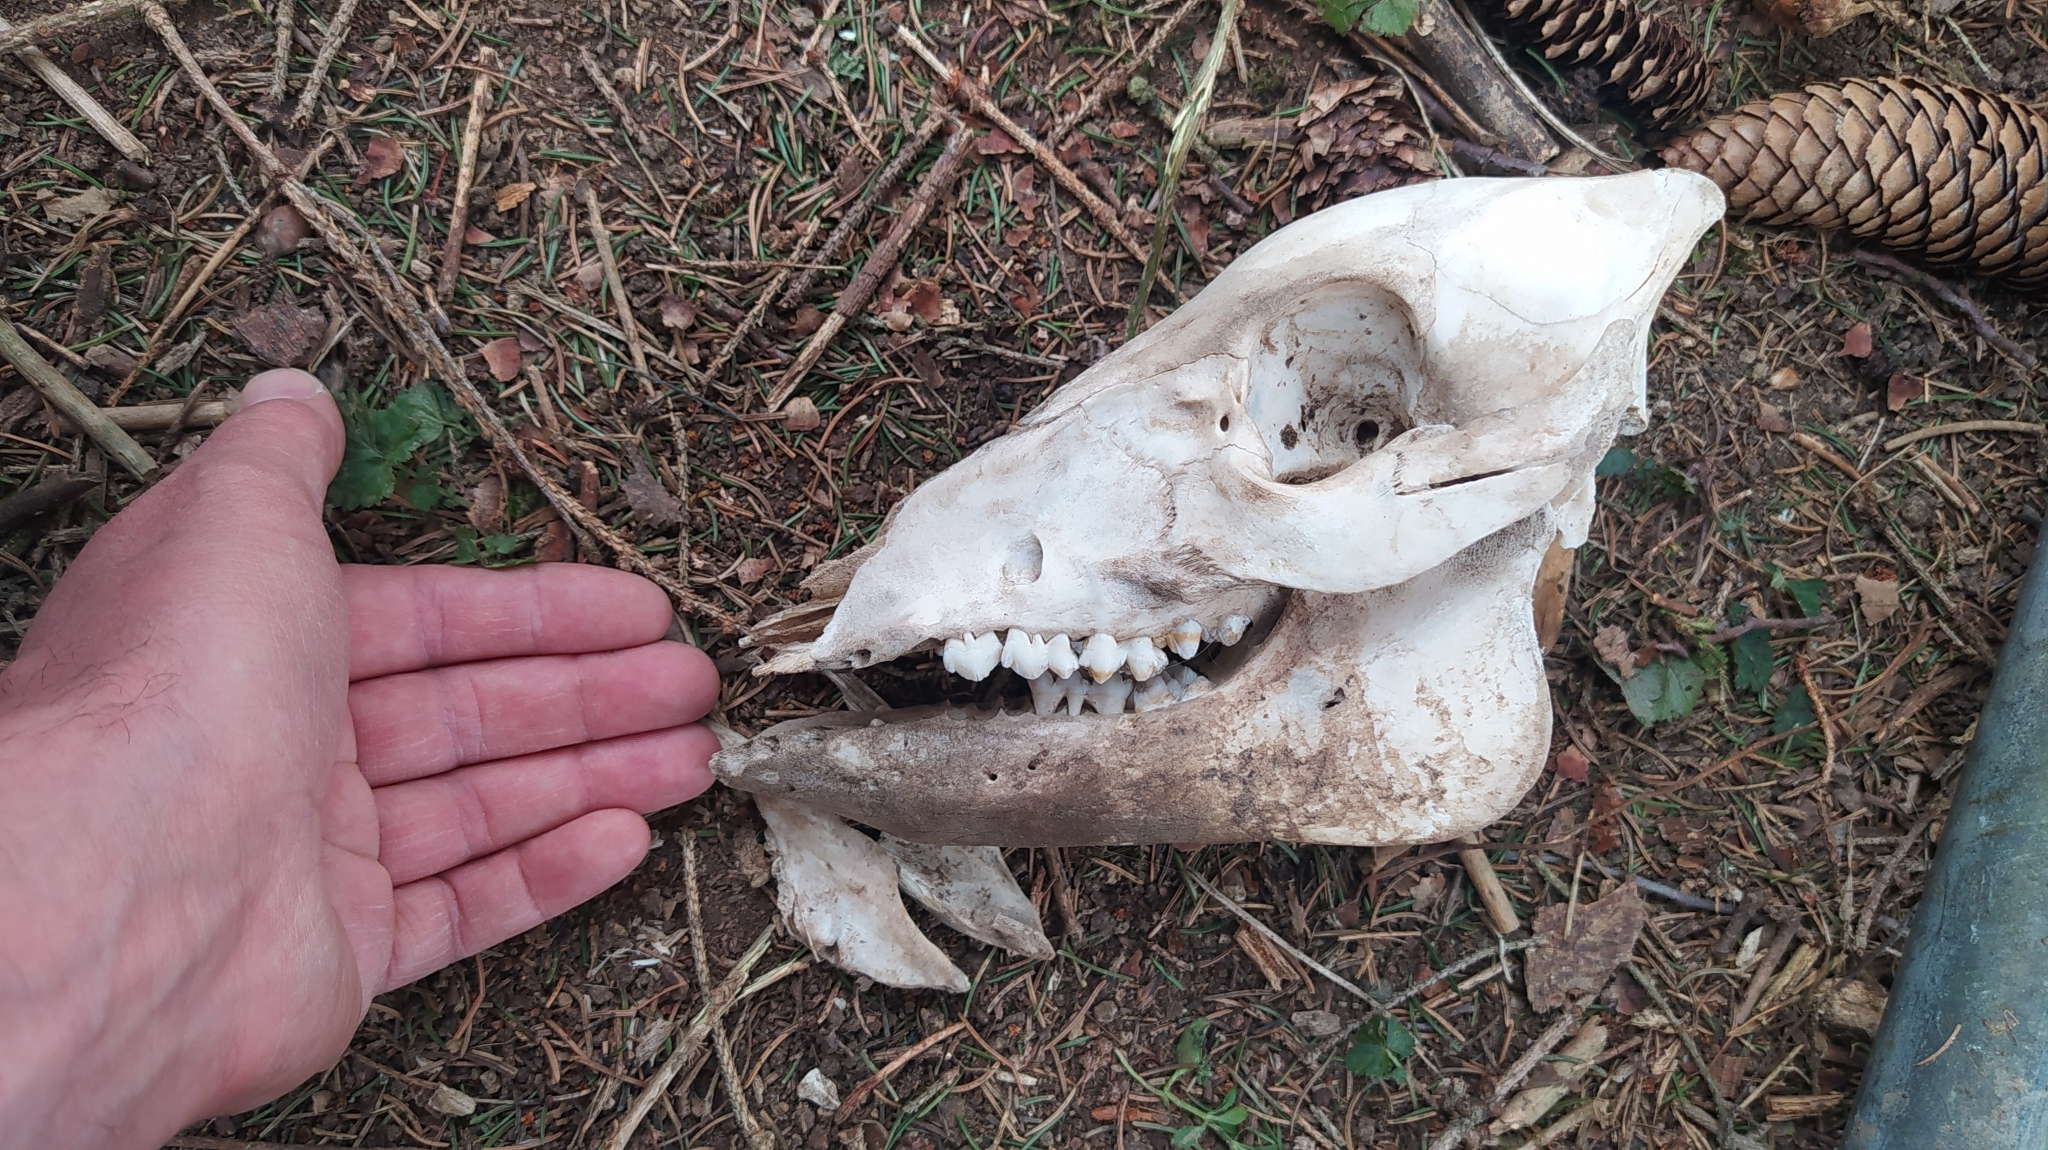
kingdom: Animalia
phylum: Chordata
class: Mammalia
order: Artiodactyla
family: Suidae
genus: Sus
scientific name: Sus scrofa
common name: Wild boar
